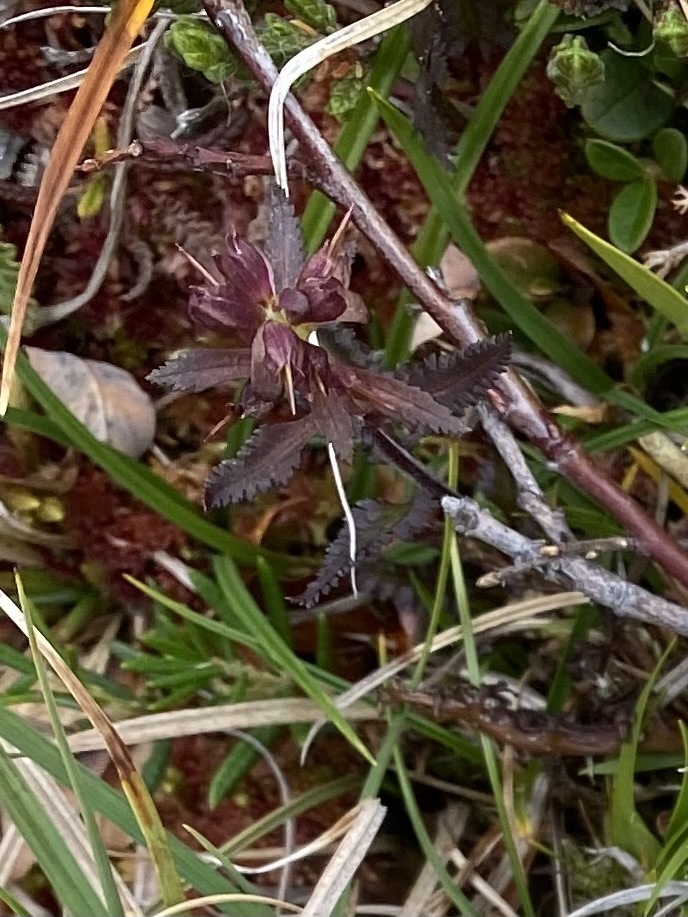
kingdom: Plantae
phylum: Tracheophyta
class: Magnoliopsida
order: Lamiales
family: Orobanchaceae
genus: Pedicularis
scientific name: Pedicularis lapponica
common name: Lapland lousewort
